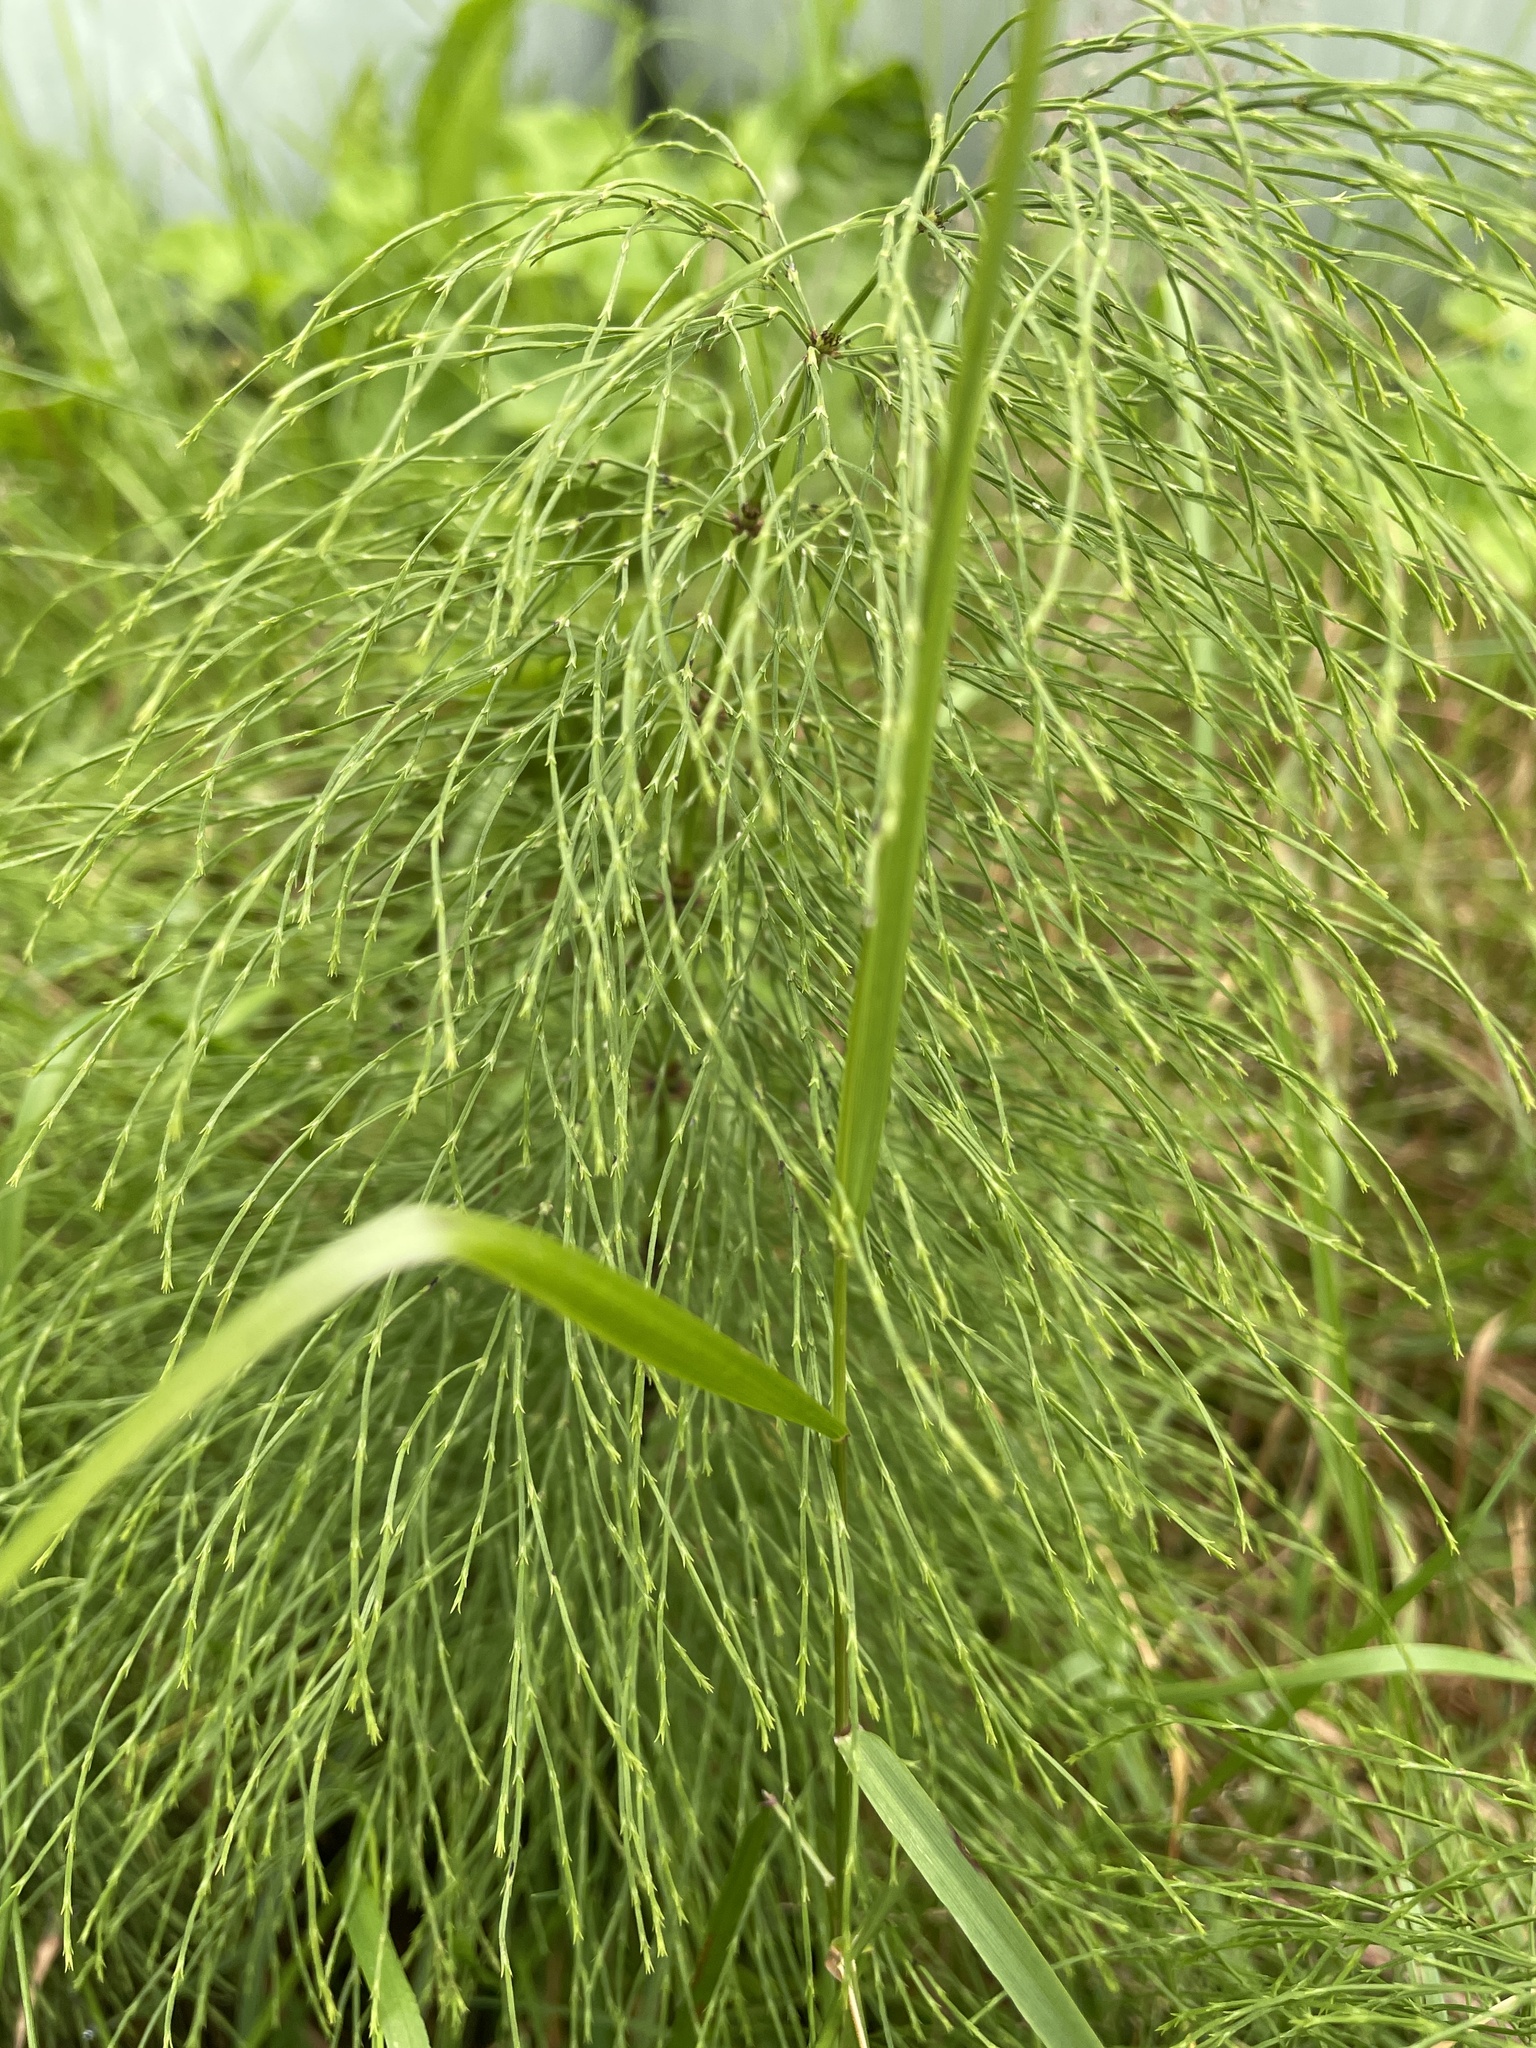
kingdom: Plantae
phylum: Tracheophyta
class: Polypodiopsida
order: Equisetales
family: Equisetaceae
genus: Equisetum
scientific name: Equisetum sylvaticum
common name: Wood horsetail
